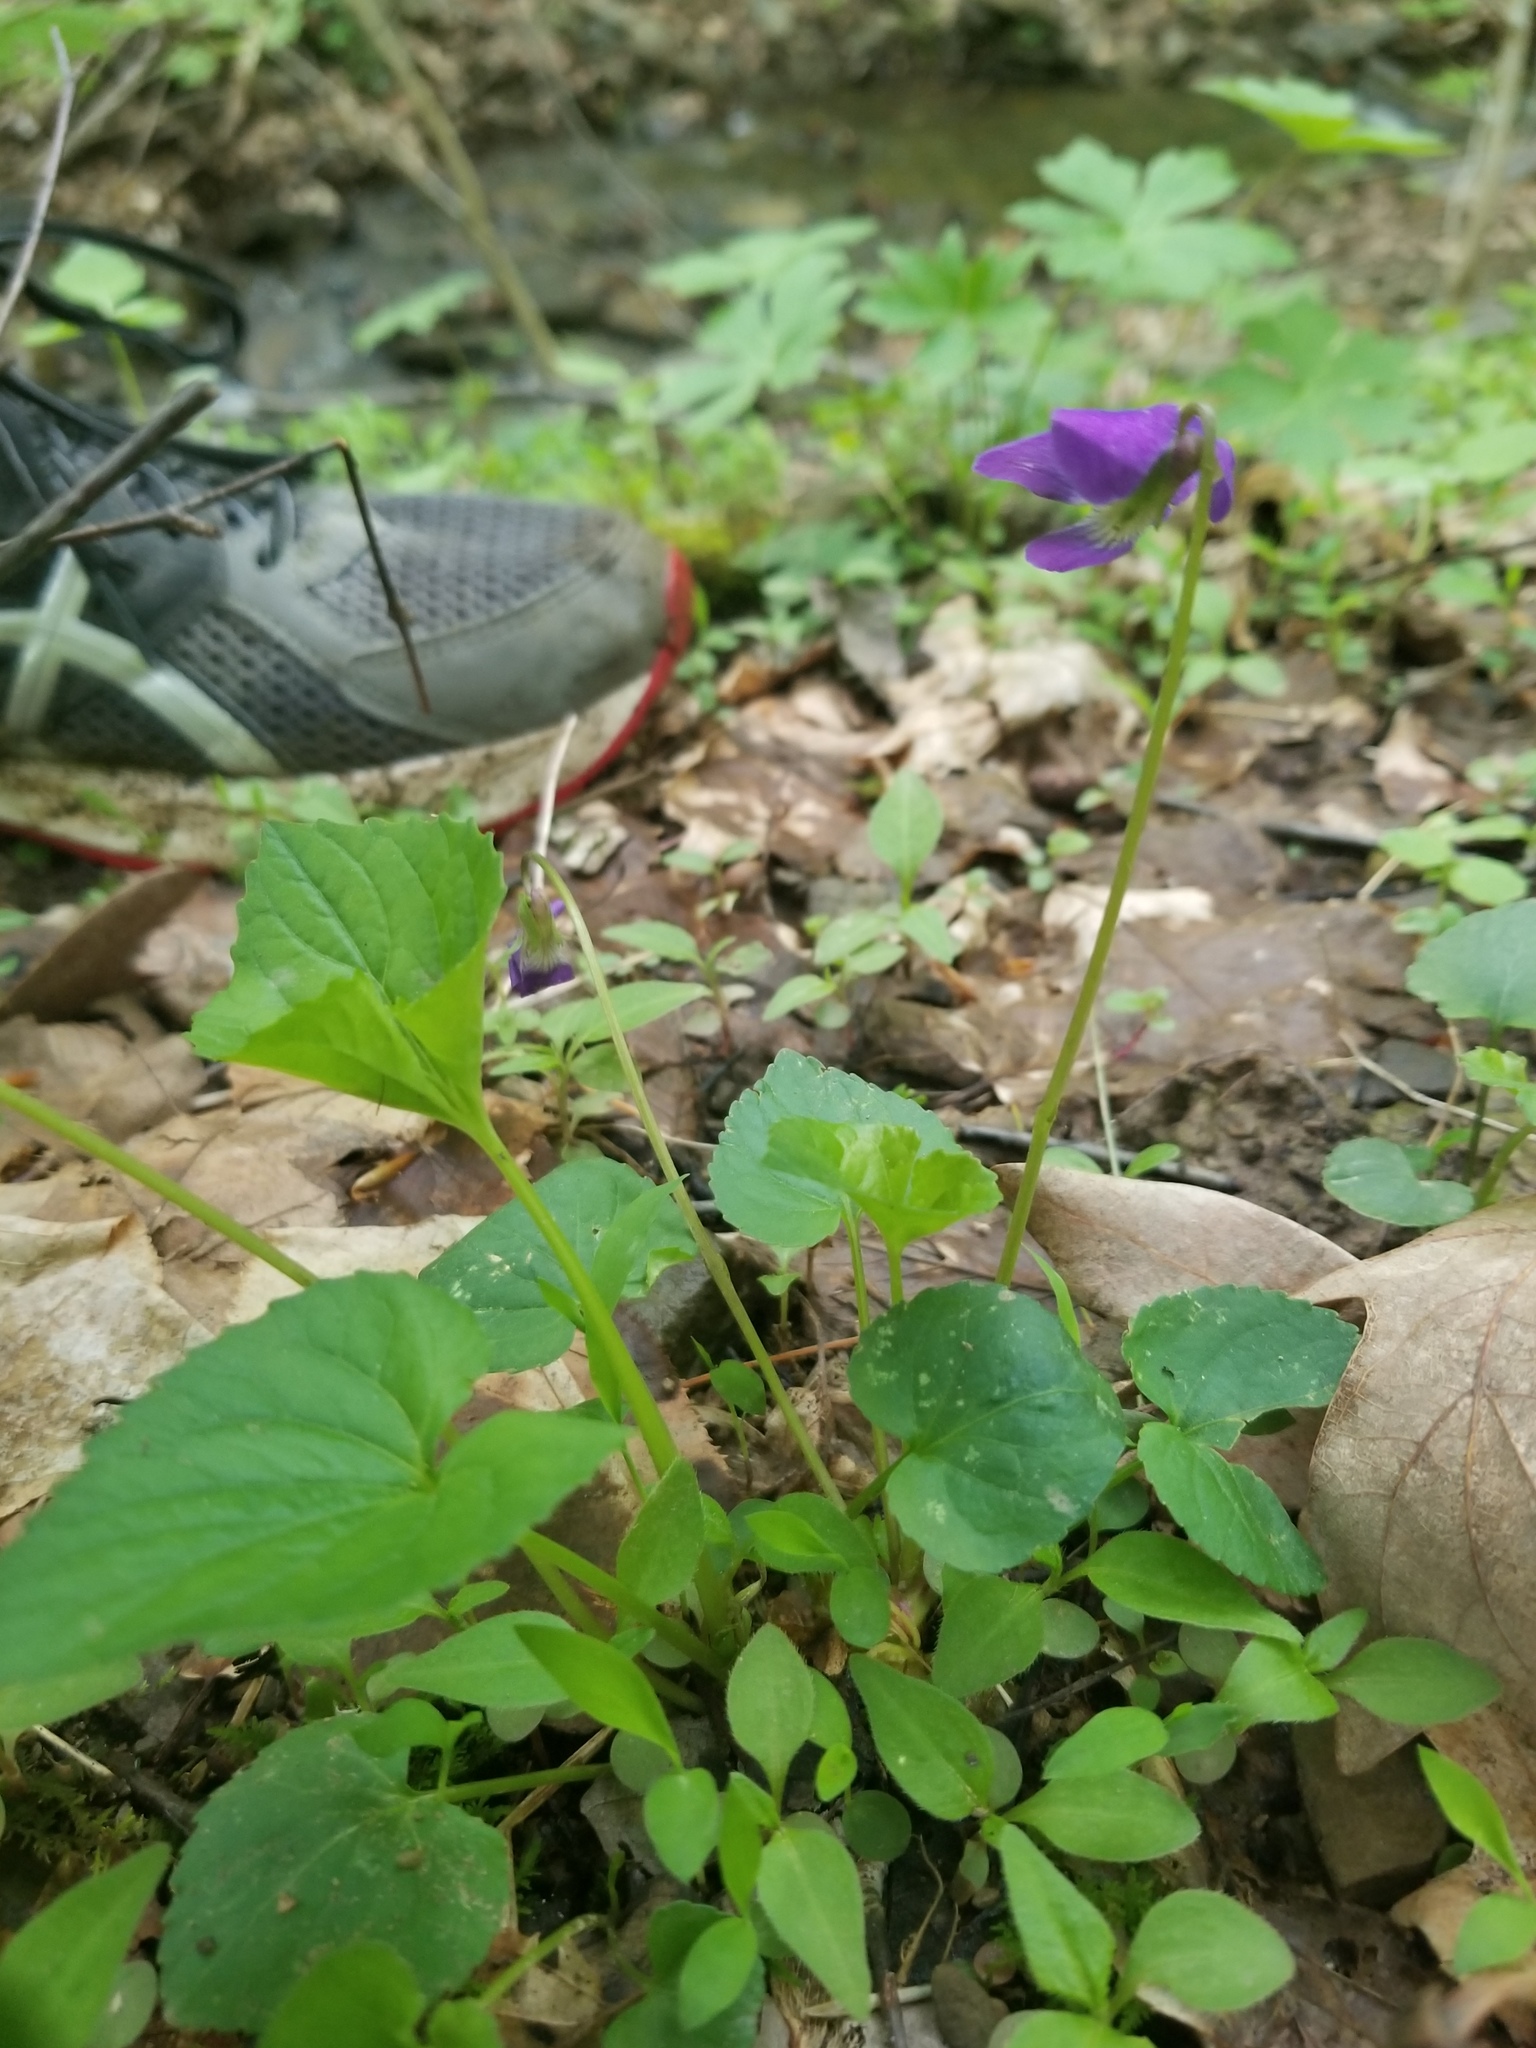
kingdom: Plantae
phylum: Tracheophyta
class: Magnoliopsida
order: Malpighiales
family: Violaceae
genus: Viola
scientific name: Viola sororia
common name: Dooryard violet
